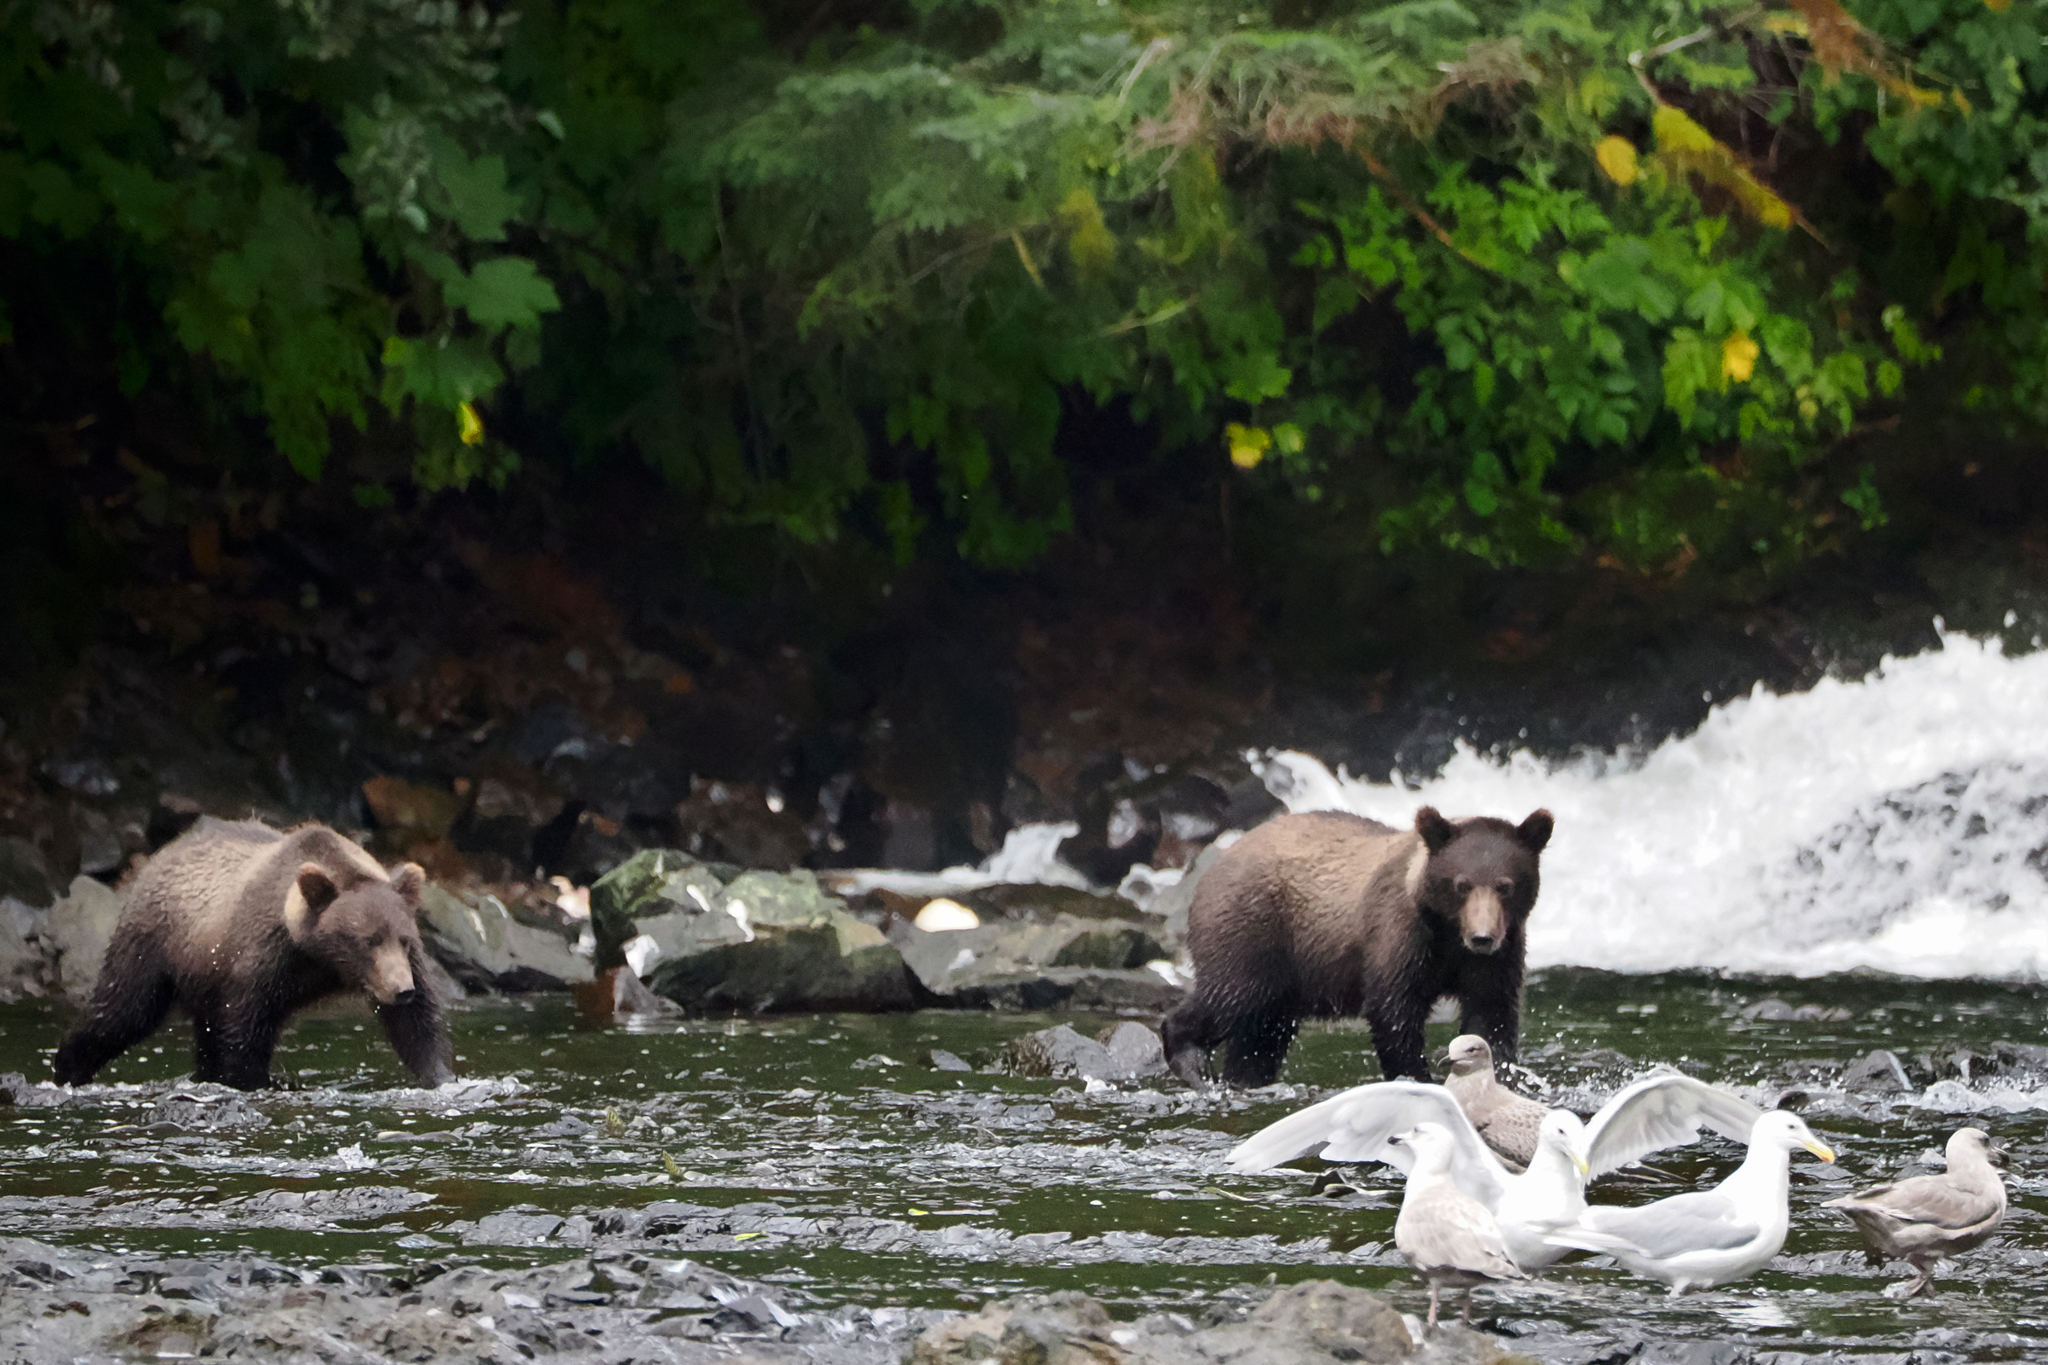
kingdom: Animalia
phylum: Chordata
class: Aves
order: Charadriiformes
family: Laridae
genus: Larus
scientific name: Larus glaucescens
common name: Glaucous-winged gull
